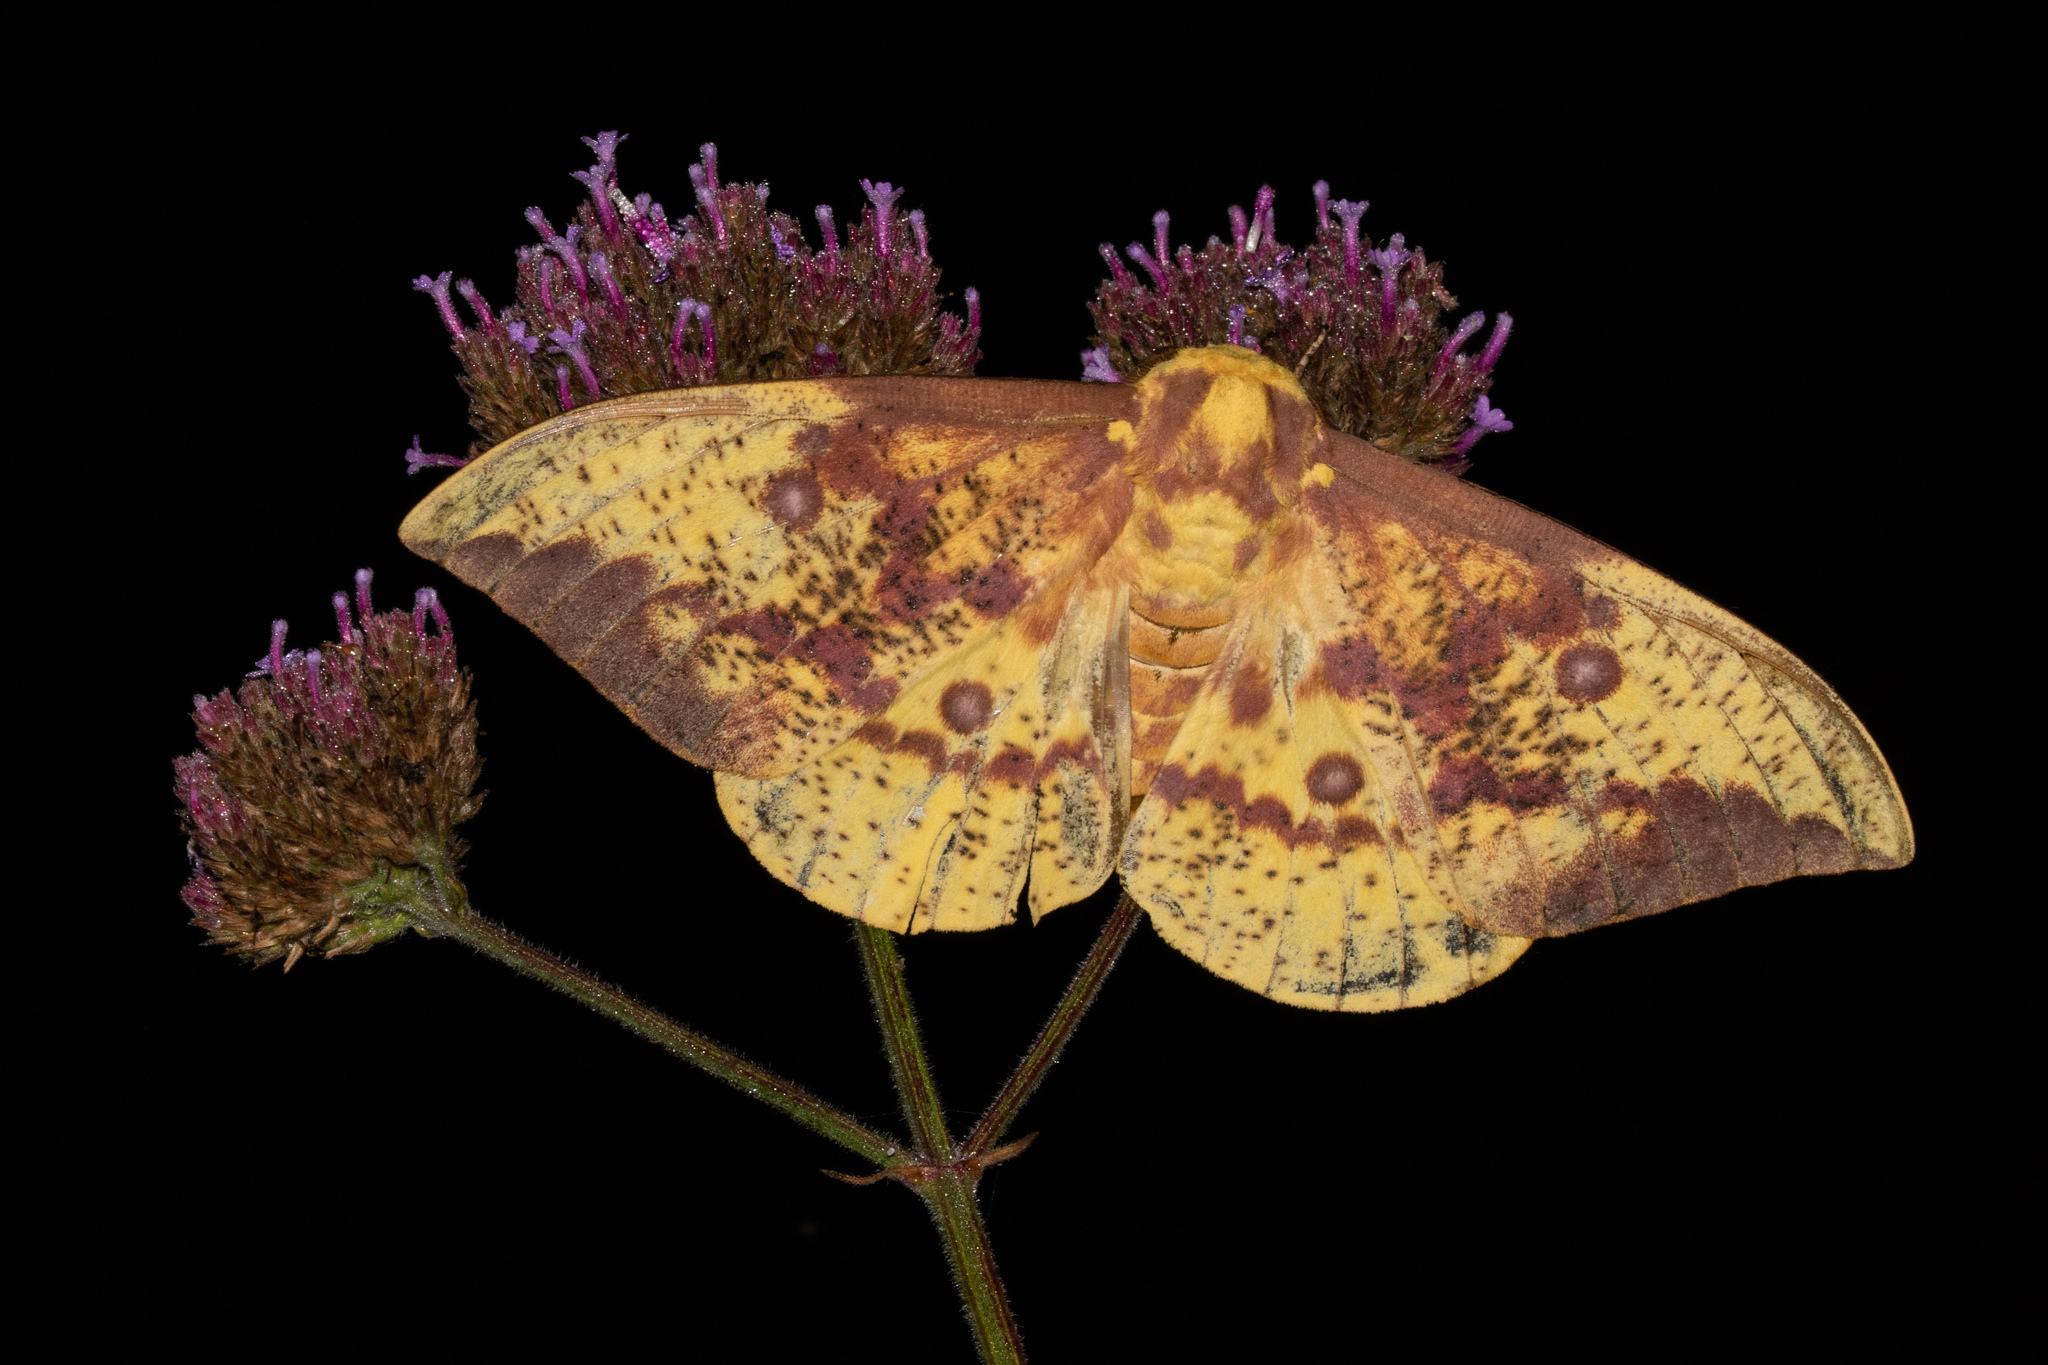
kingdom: Animalia
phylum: Arthropoda
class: Insecta
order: Lepidoptera
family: Saturniidae
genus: Eacles
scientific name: Eacles imperialis
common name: Imperial moth
